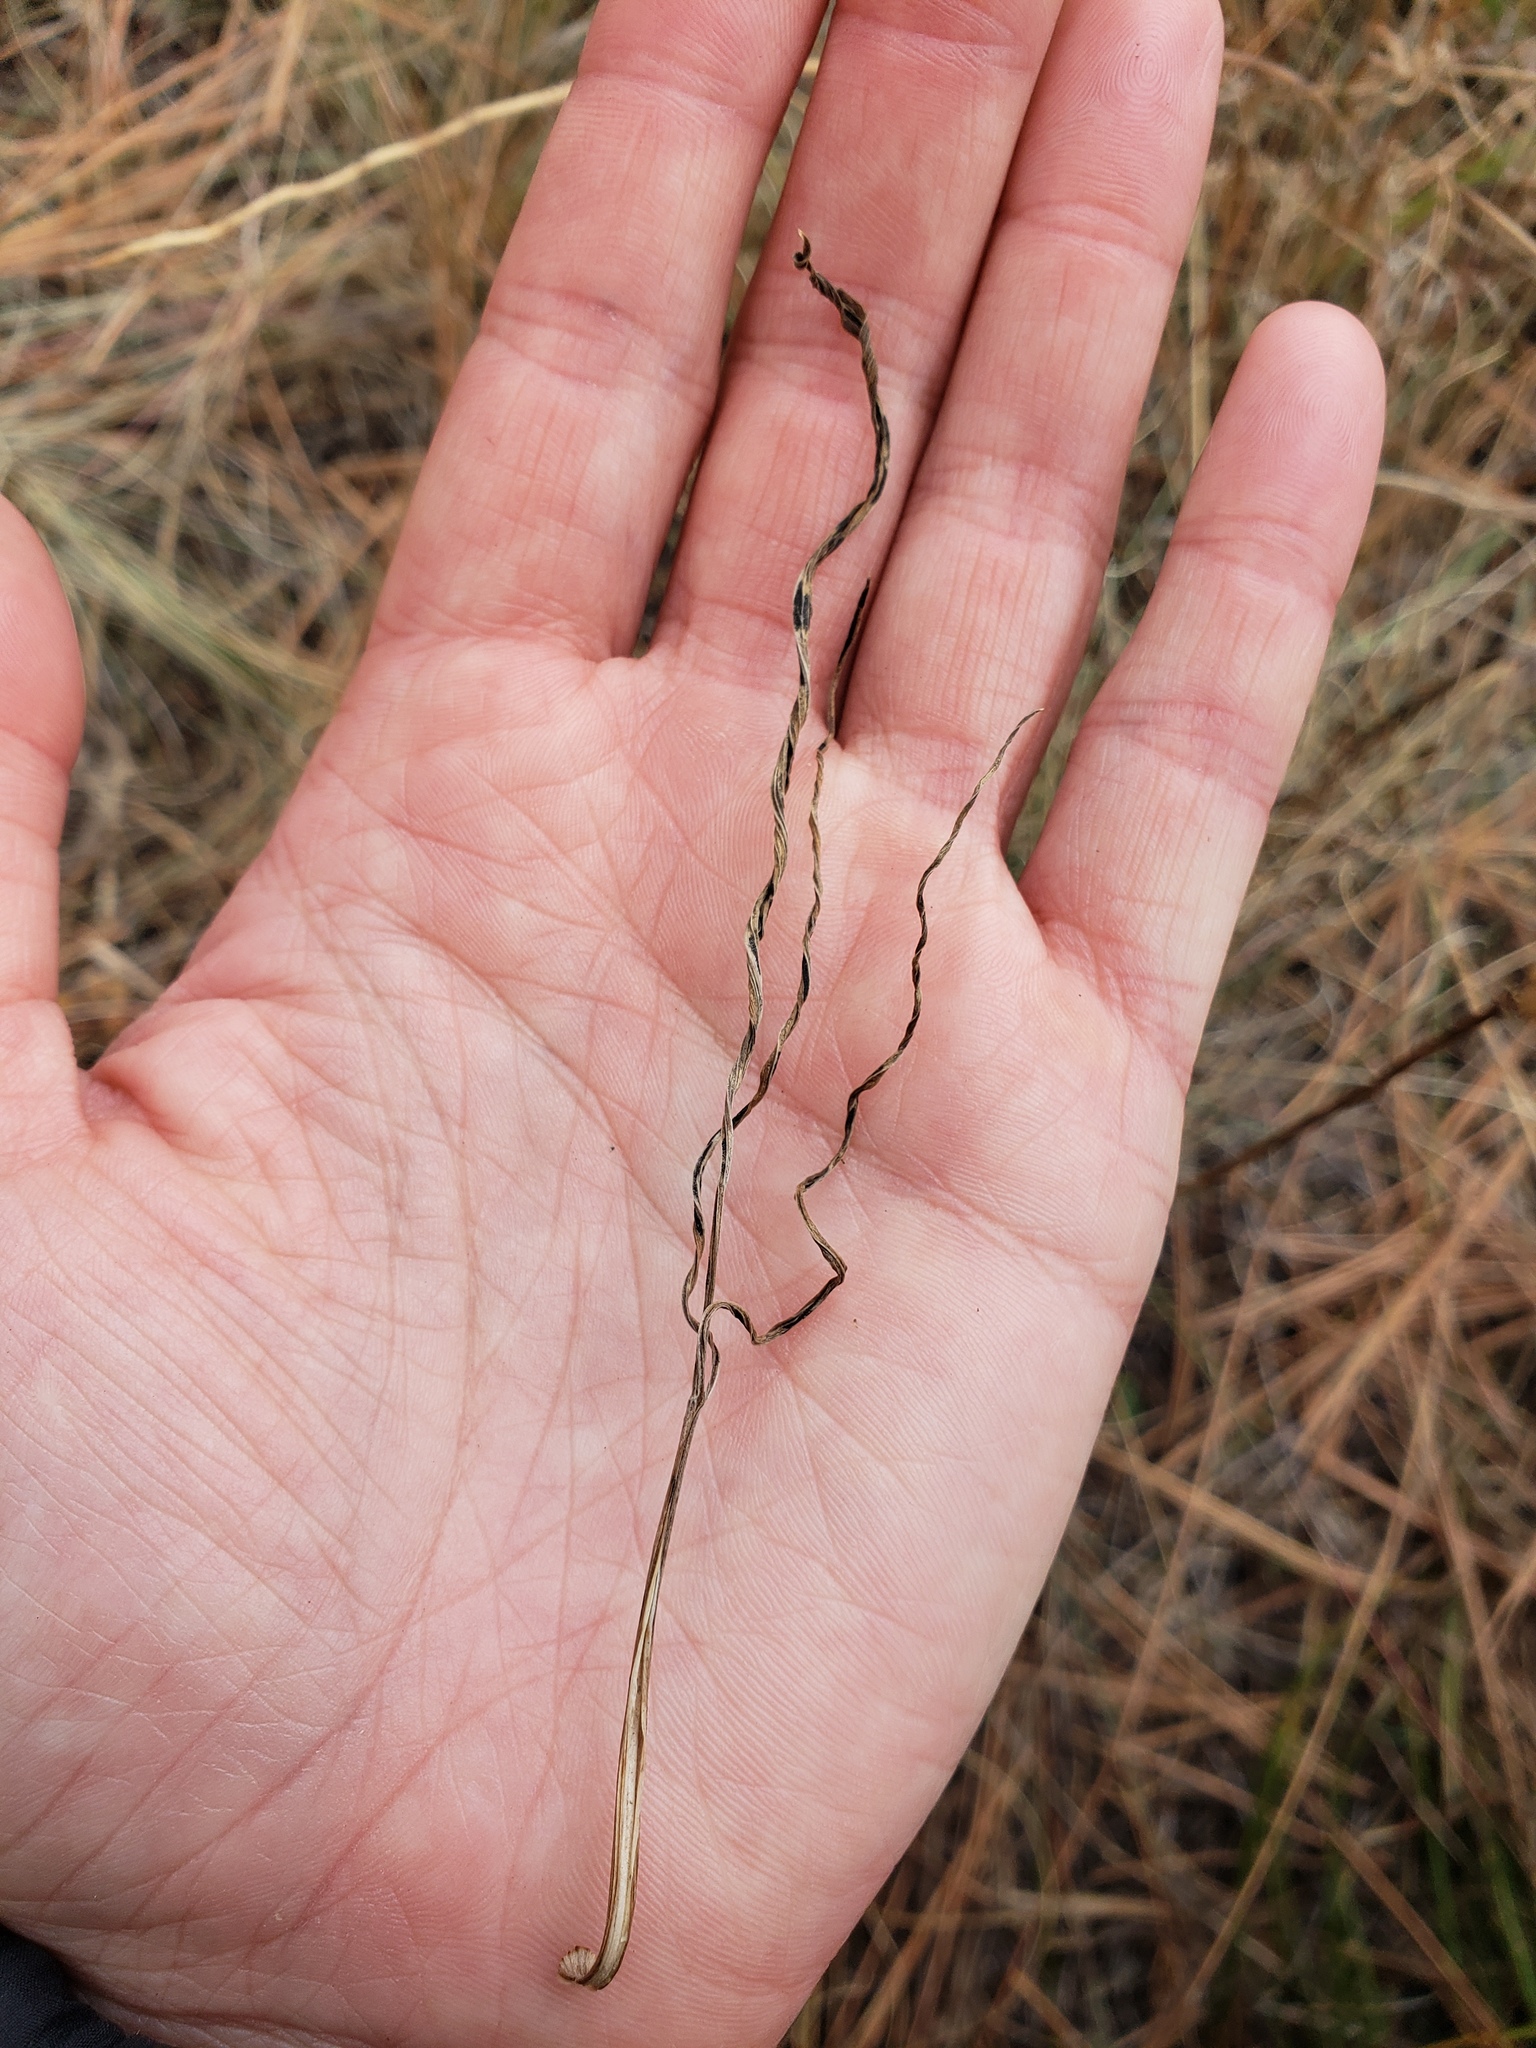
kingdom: Plantae
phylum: Tracheophyta
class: Magnoliopsida
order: Apiales
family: Apiaceae
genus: Perideridia
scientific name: Perideridia bolanderi
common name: Olasi
